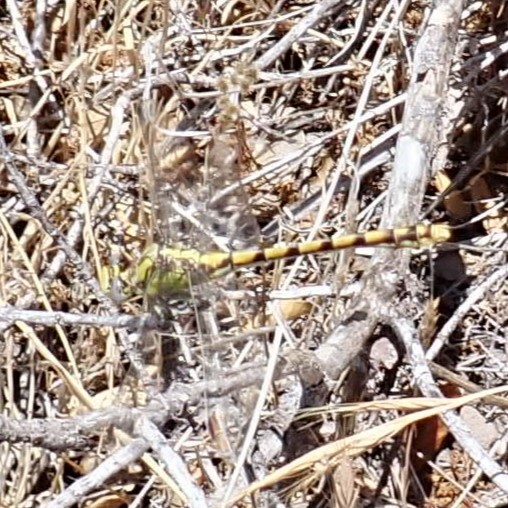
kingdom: Animalia
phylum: Arthropoda
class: Insecta
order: Odonata
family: Gomphidae
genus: Ophiogomphus
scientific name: Ophiogomphus occidentis
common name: Sinuous snaketail
